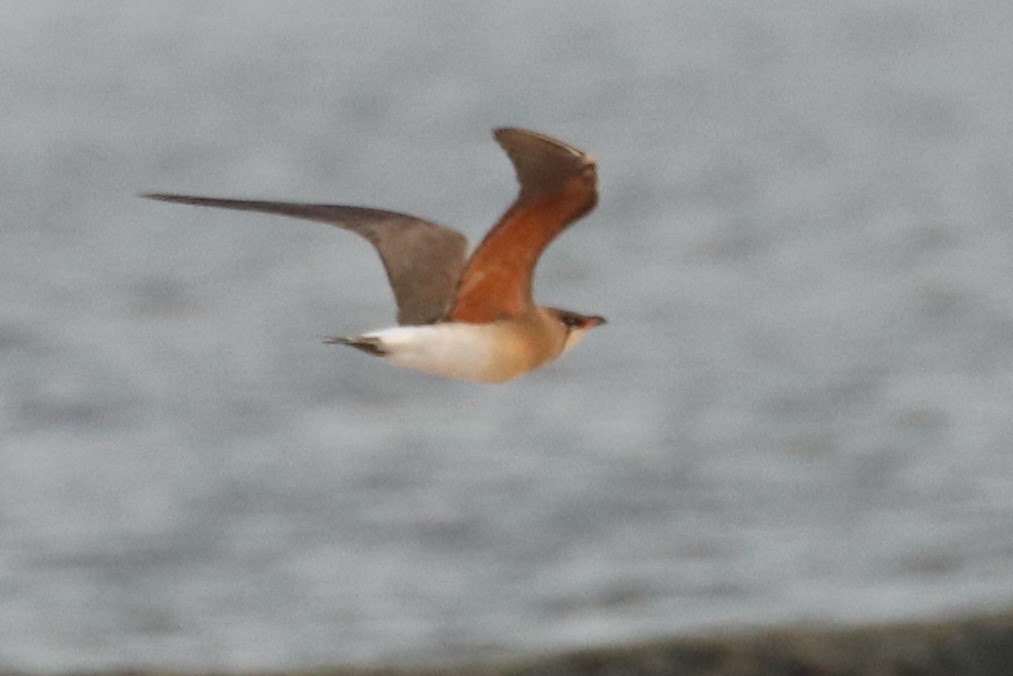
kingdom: Animalia
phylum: Chordata
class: Aves
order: Charadriiformes
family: Glareolidae
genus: Glareola
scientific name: Glareola maldivarum
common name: Oriental pratincole
